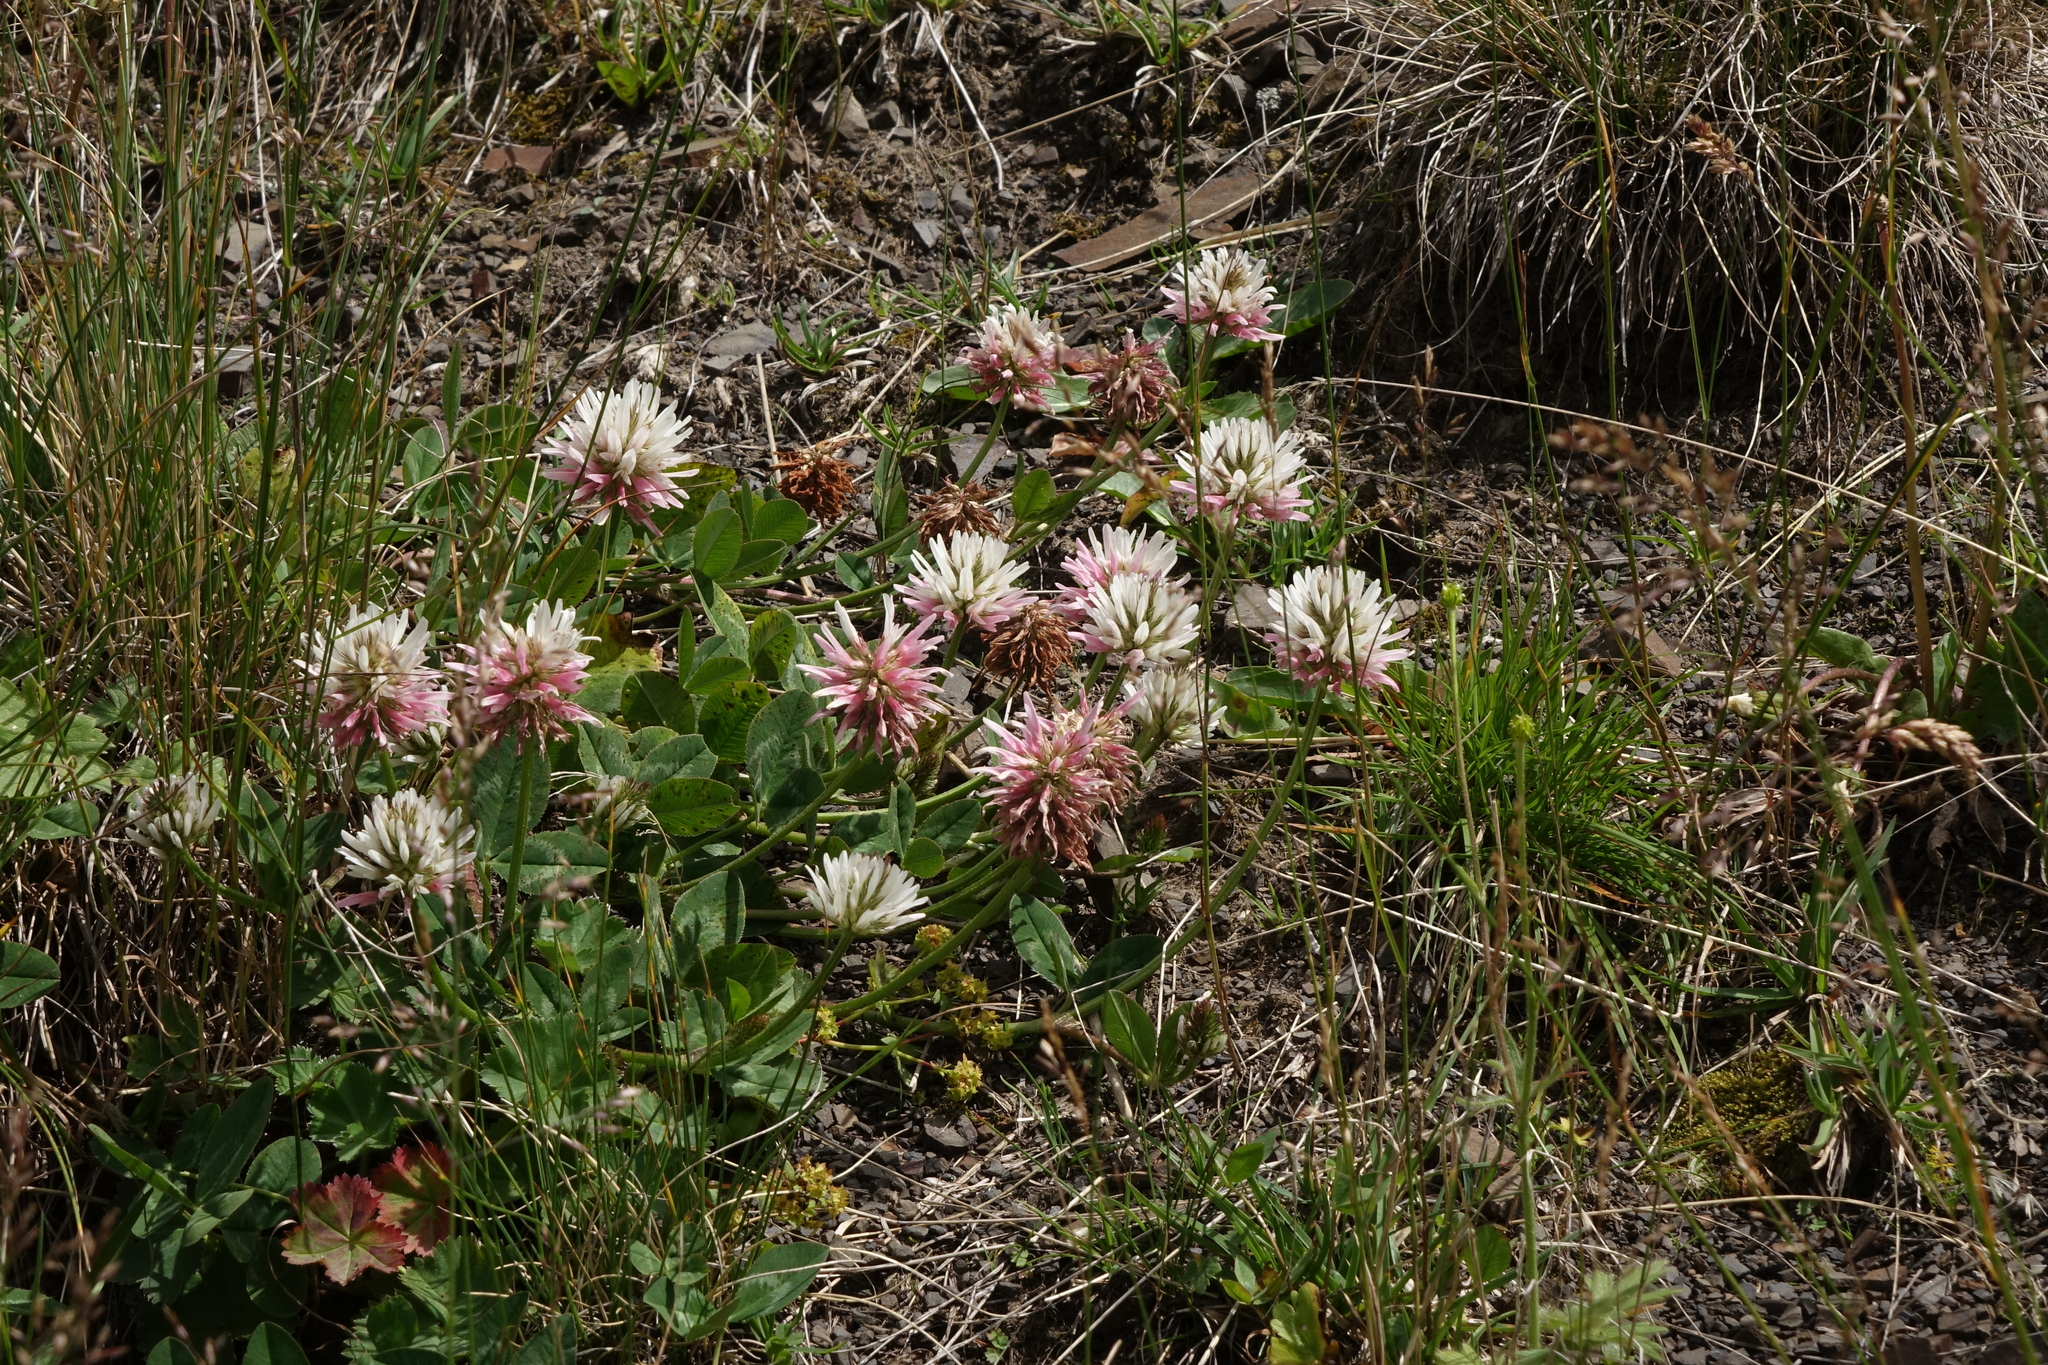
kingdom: Plantae
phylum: Tracheophyta
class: Magnoliopsida
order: Fabales
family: Fabaceae
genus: Trifolium
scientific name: Trifolium ambiguum
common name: Kura clover
